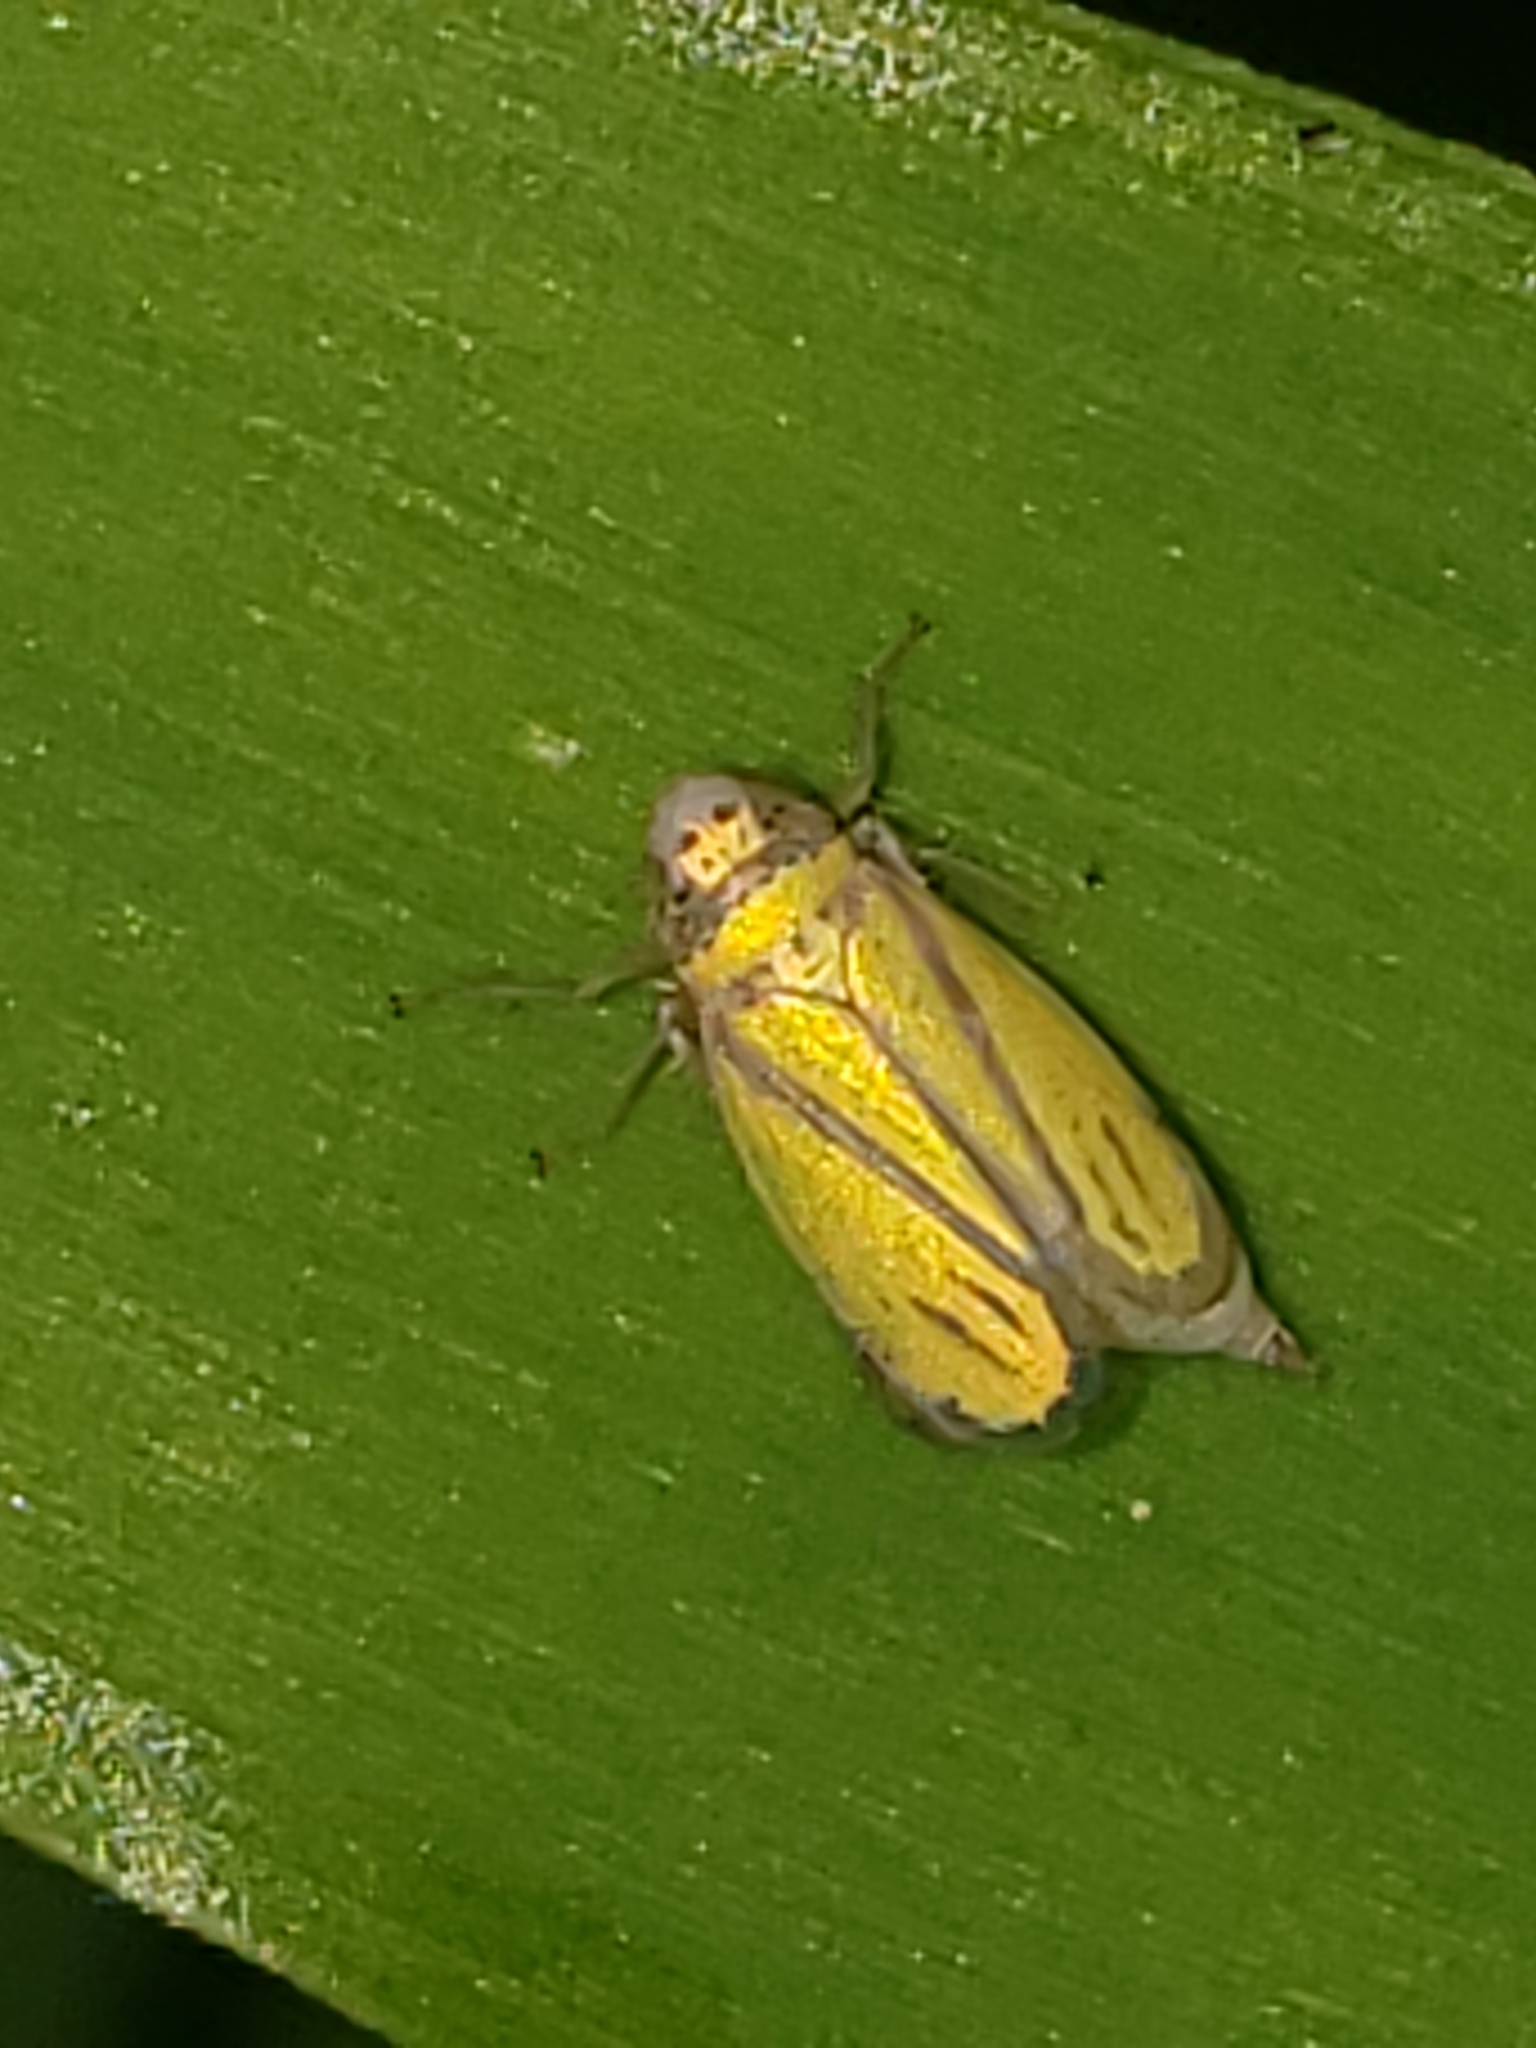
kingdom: Animalia
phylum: Arthropoda
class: Insecta
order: Hemiptera
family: Cicadellidae
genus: Stirellus
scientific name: Stirellus bicolor
